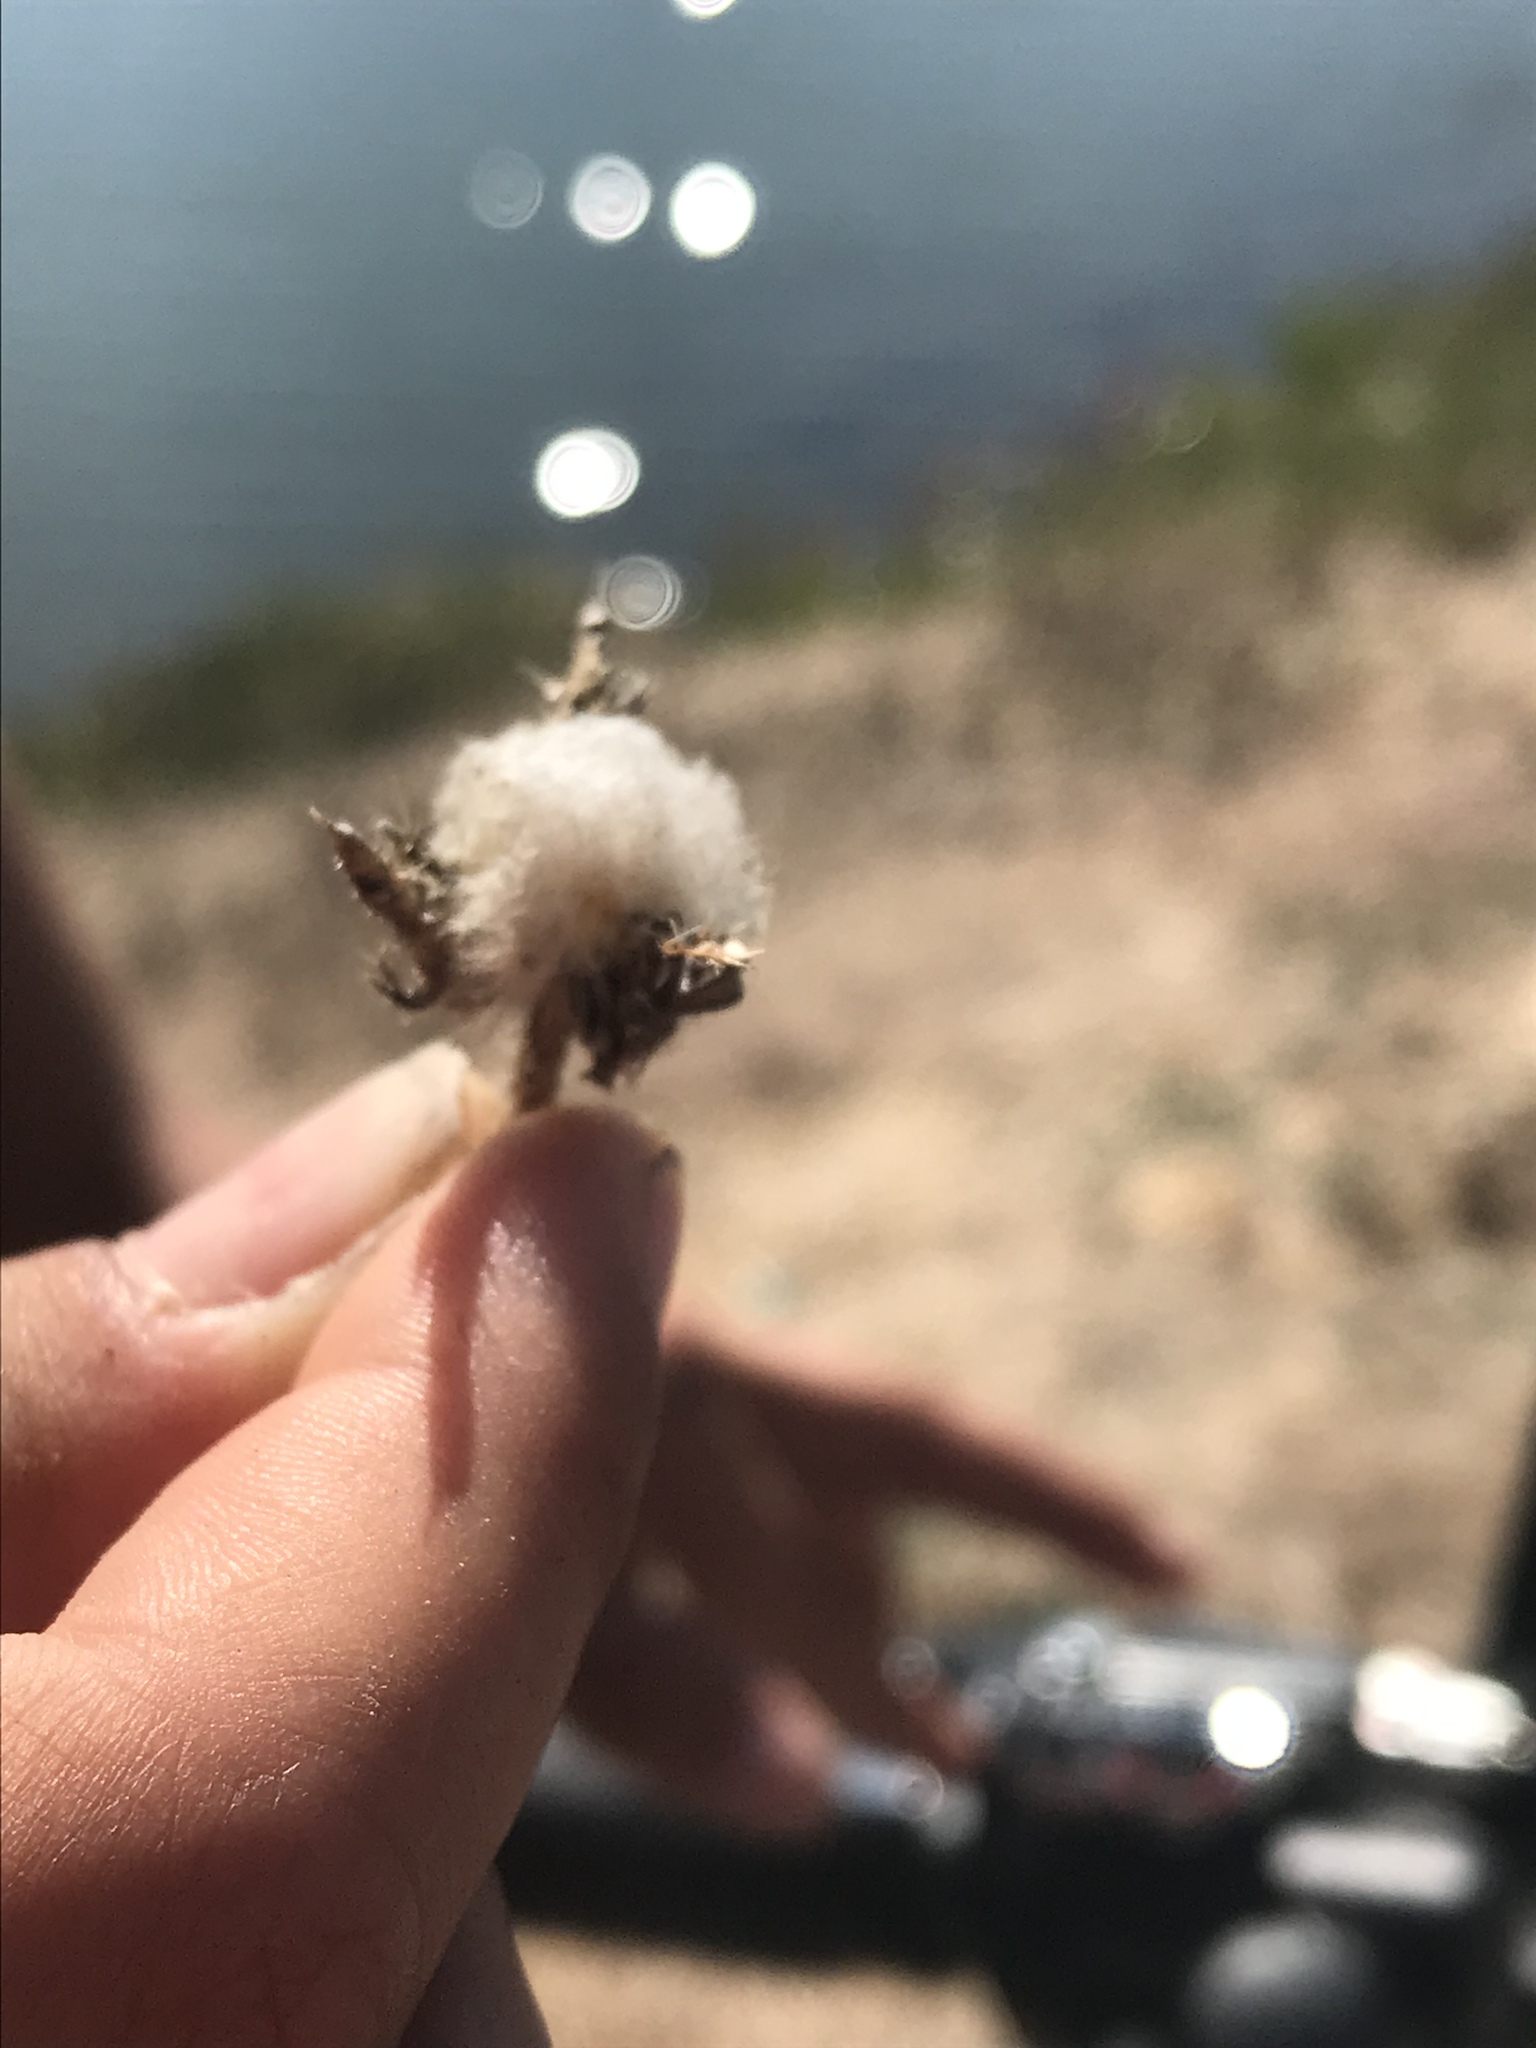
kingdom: Plantae
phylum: Tracheophyta
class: Magnoliopsida
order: Asterales
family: Asteraceae
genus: Helminthotheca
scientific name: Helminthotheca echioides
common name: Ox-tongue
